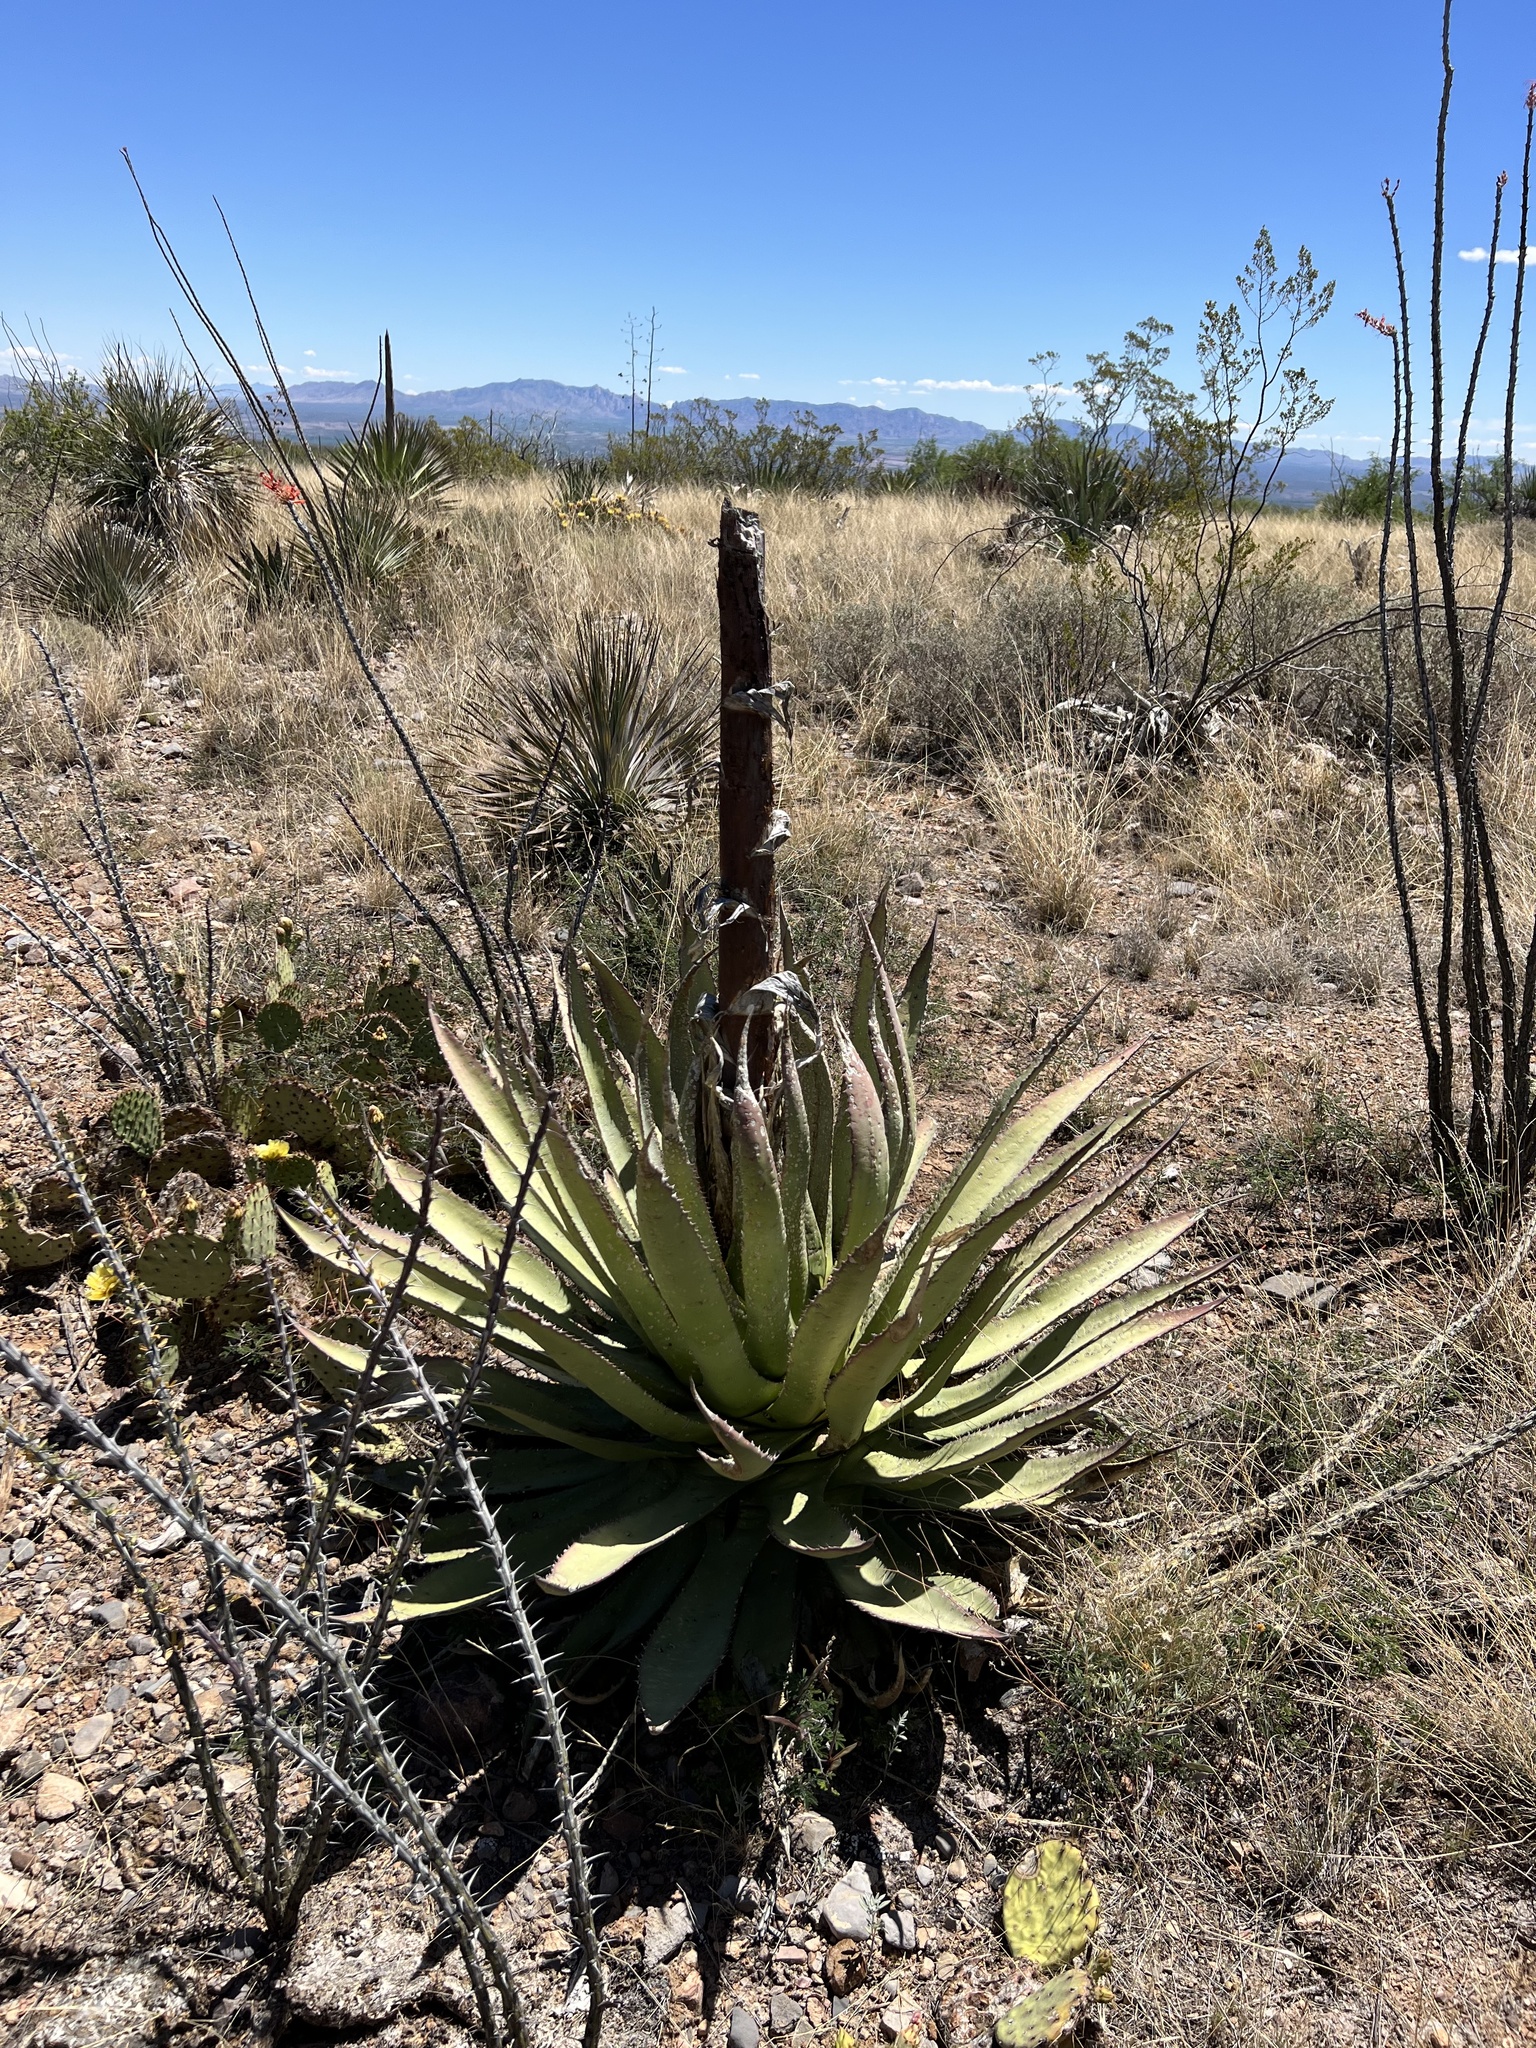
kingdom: Plantae
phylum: Tracheophyta
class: Liliopsida
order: Asparagales
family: Asparagaceae
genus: Agave
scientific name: Agave palmeri
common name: Palmer agave
